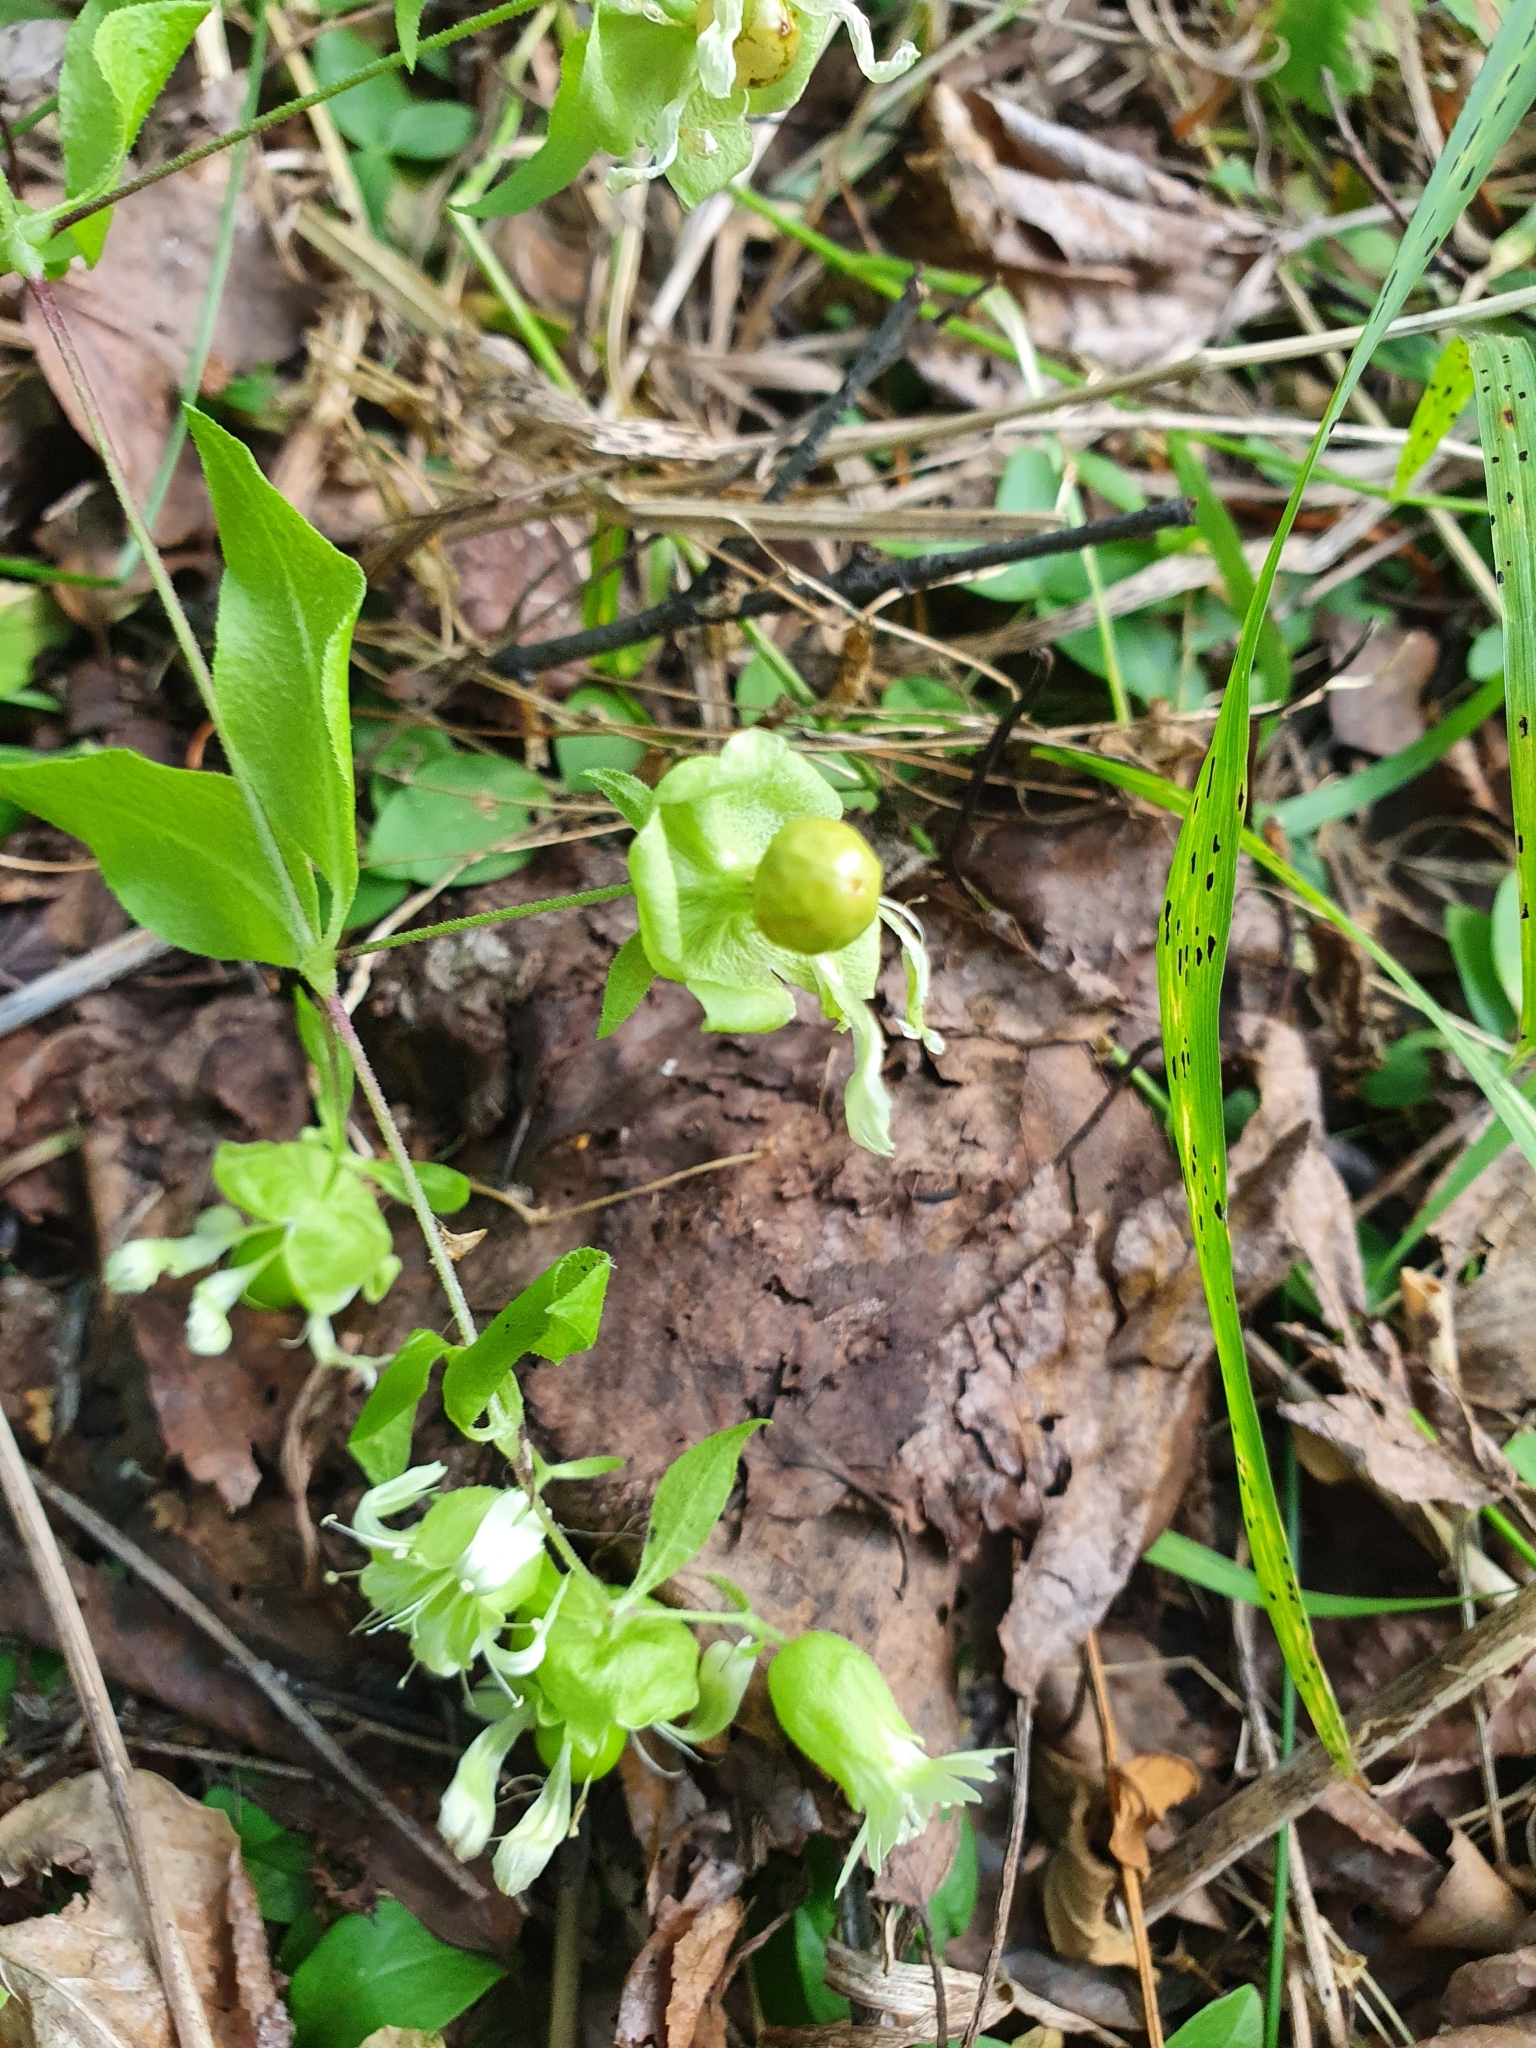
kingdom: Plantae
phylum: Tracheophyta
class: Magnoliopsida
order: Caryophyllales
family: Caryophyllaceae
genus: Silene
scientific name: Silene baccifera
